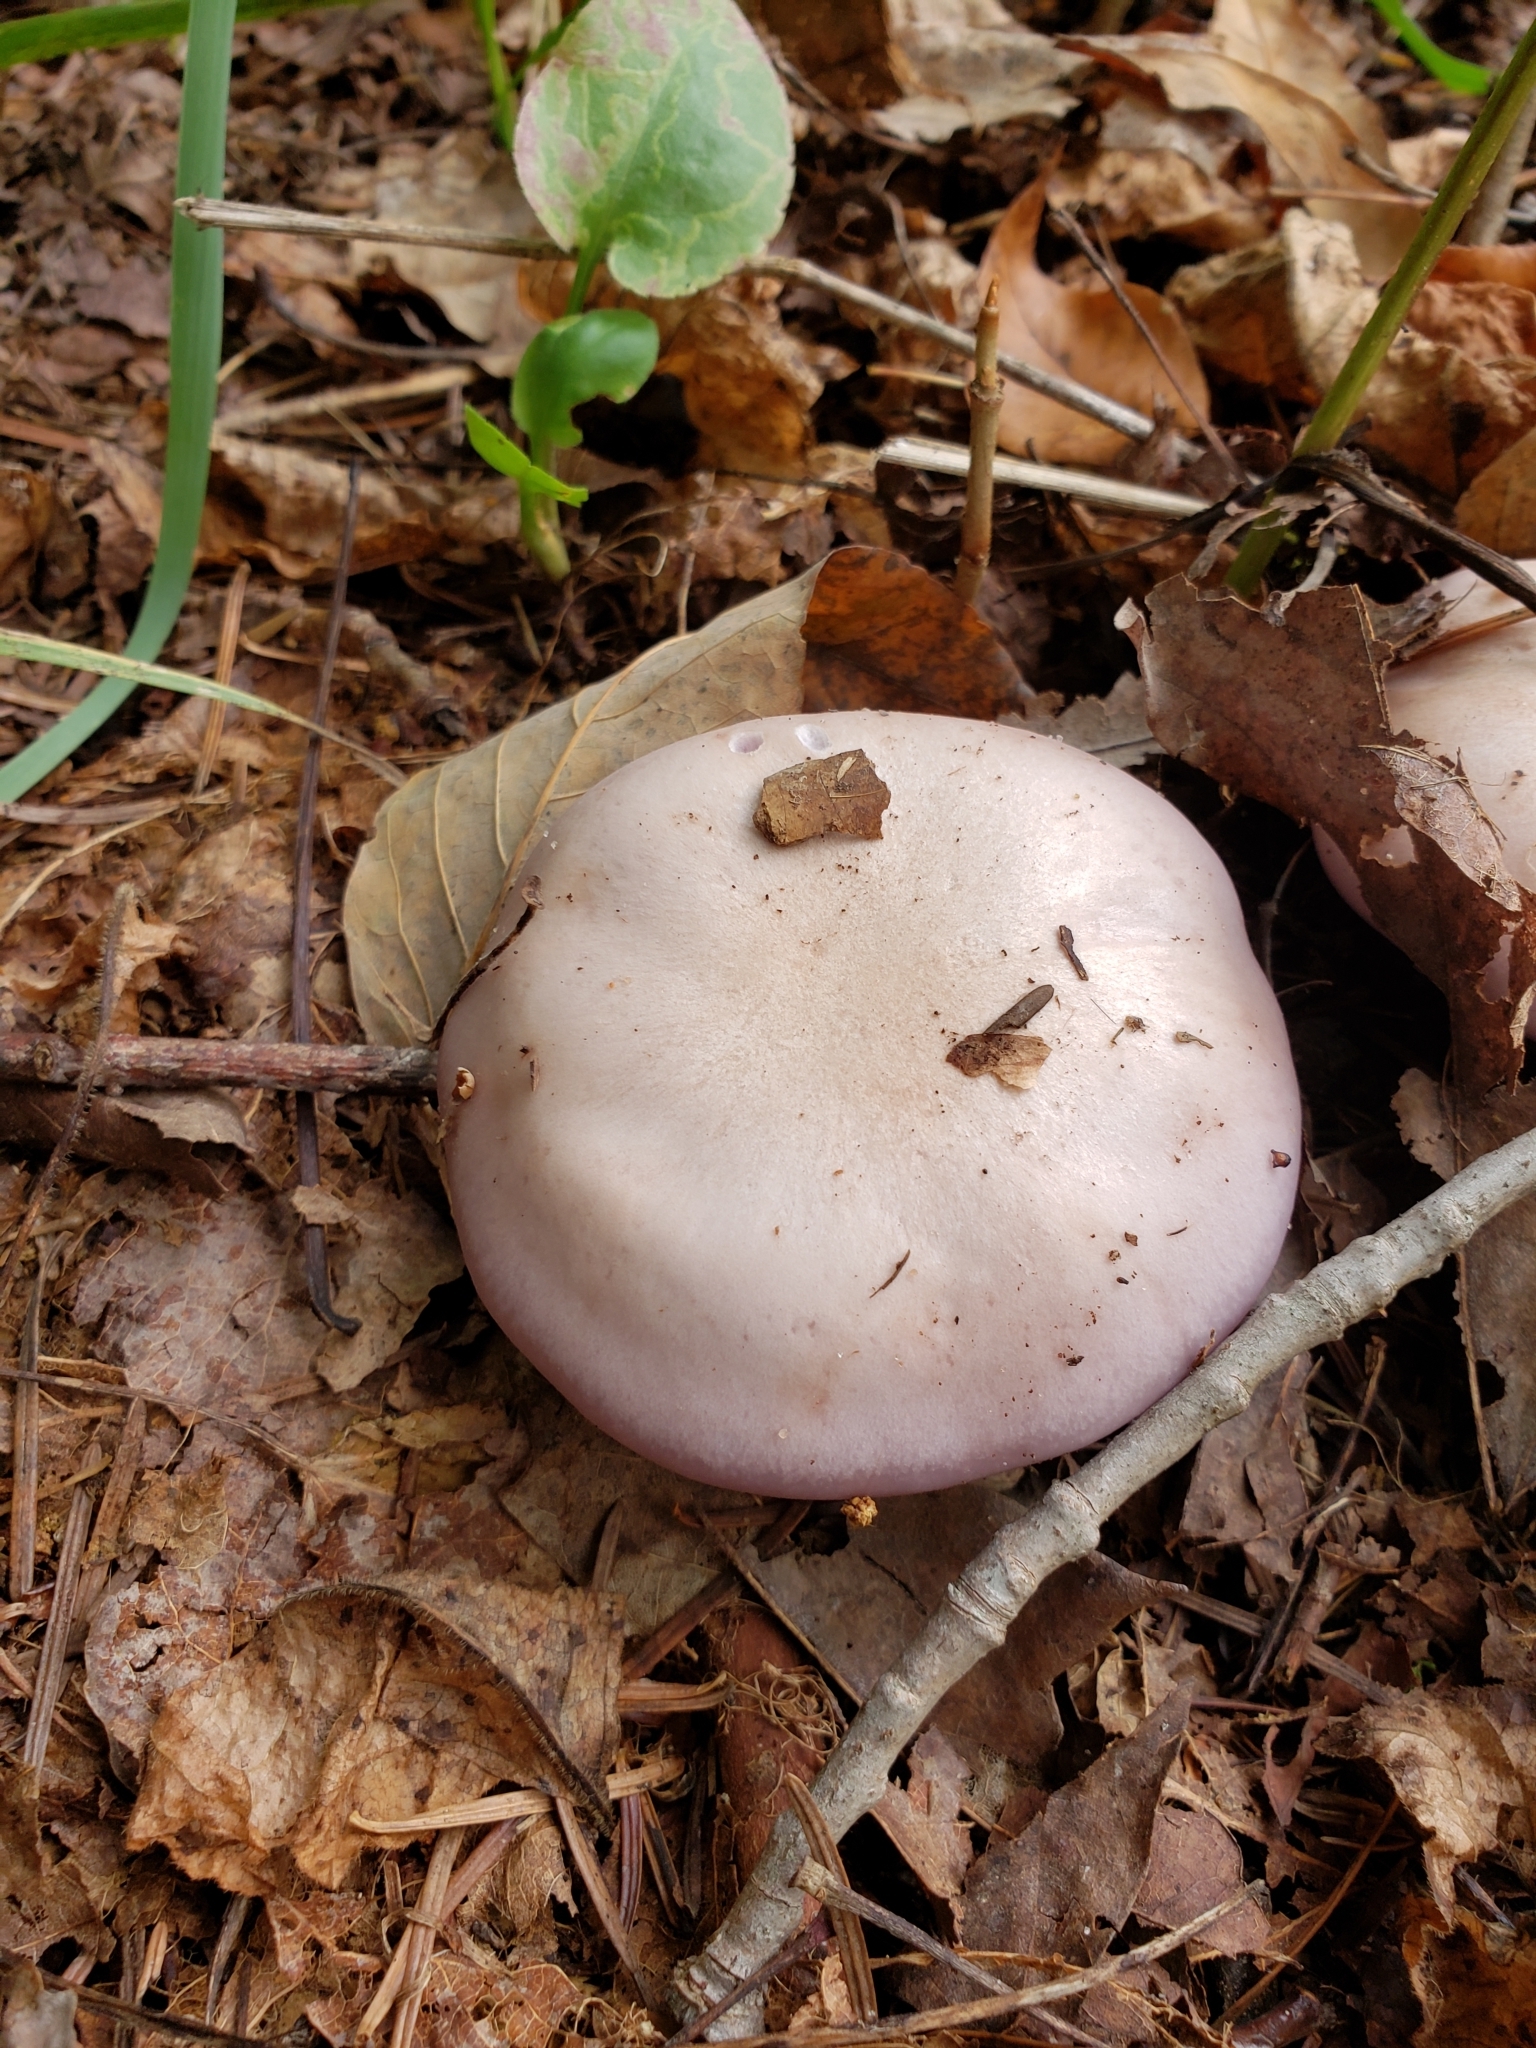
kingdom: Fungi
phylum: Basidiomycota
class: Agaricomycetes
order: Agaricales
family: Tricholomataceae
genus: Collybia
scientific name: Collybia
